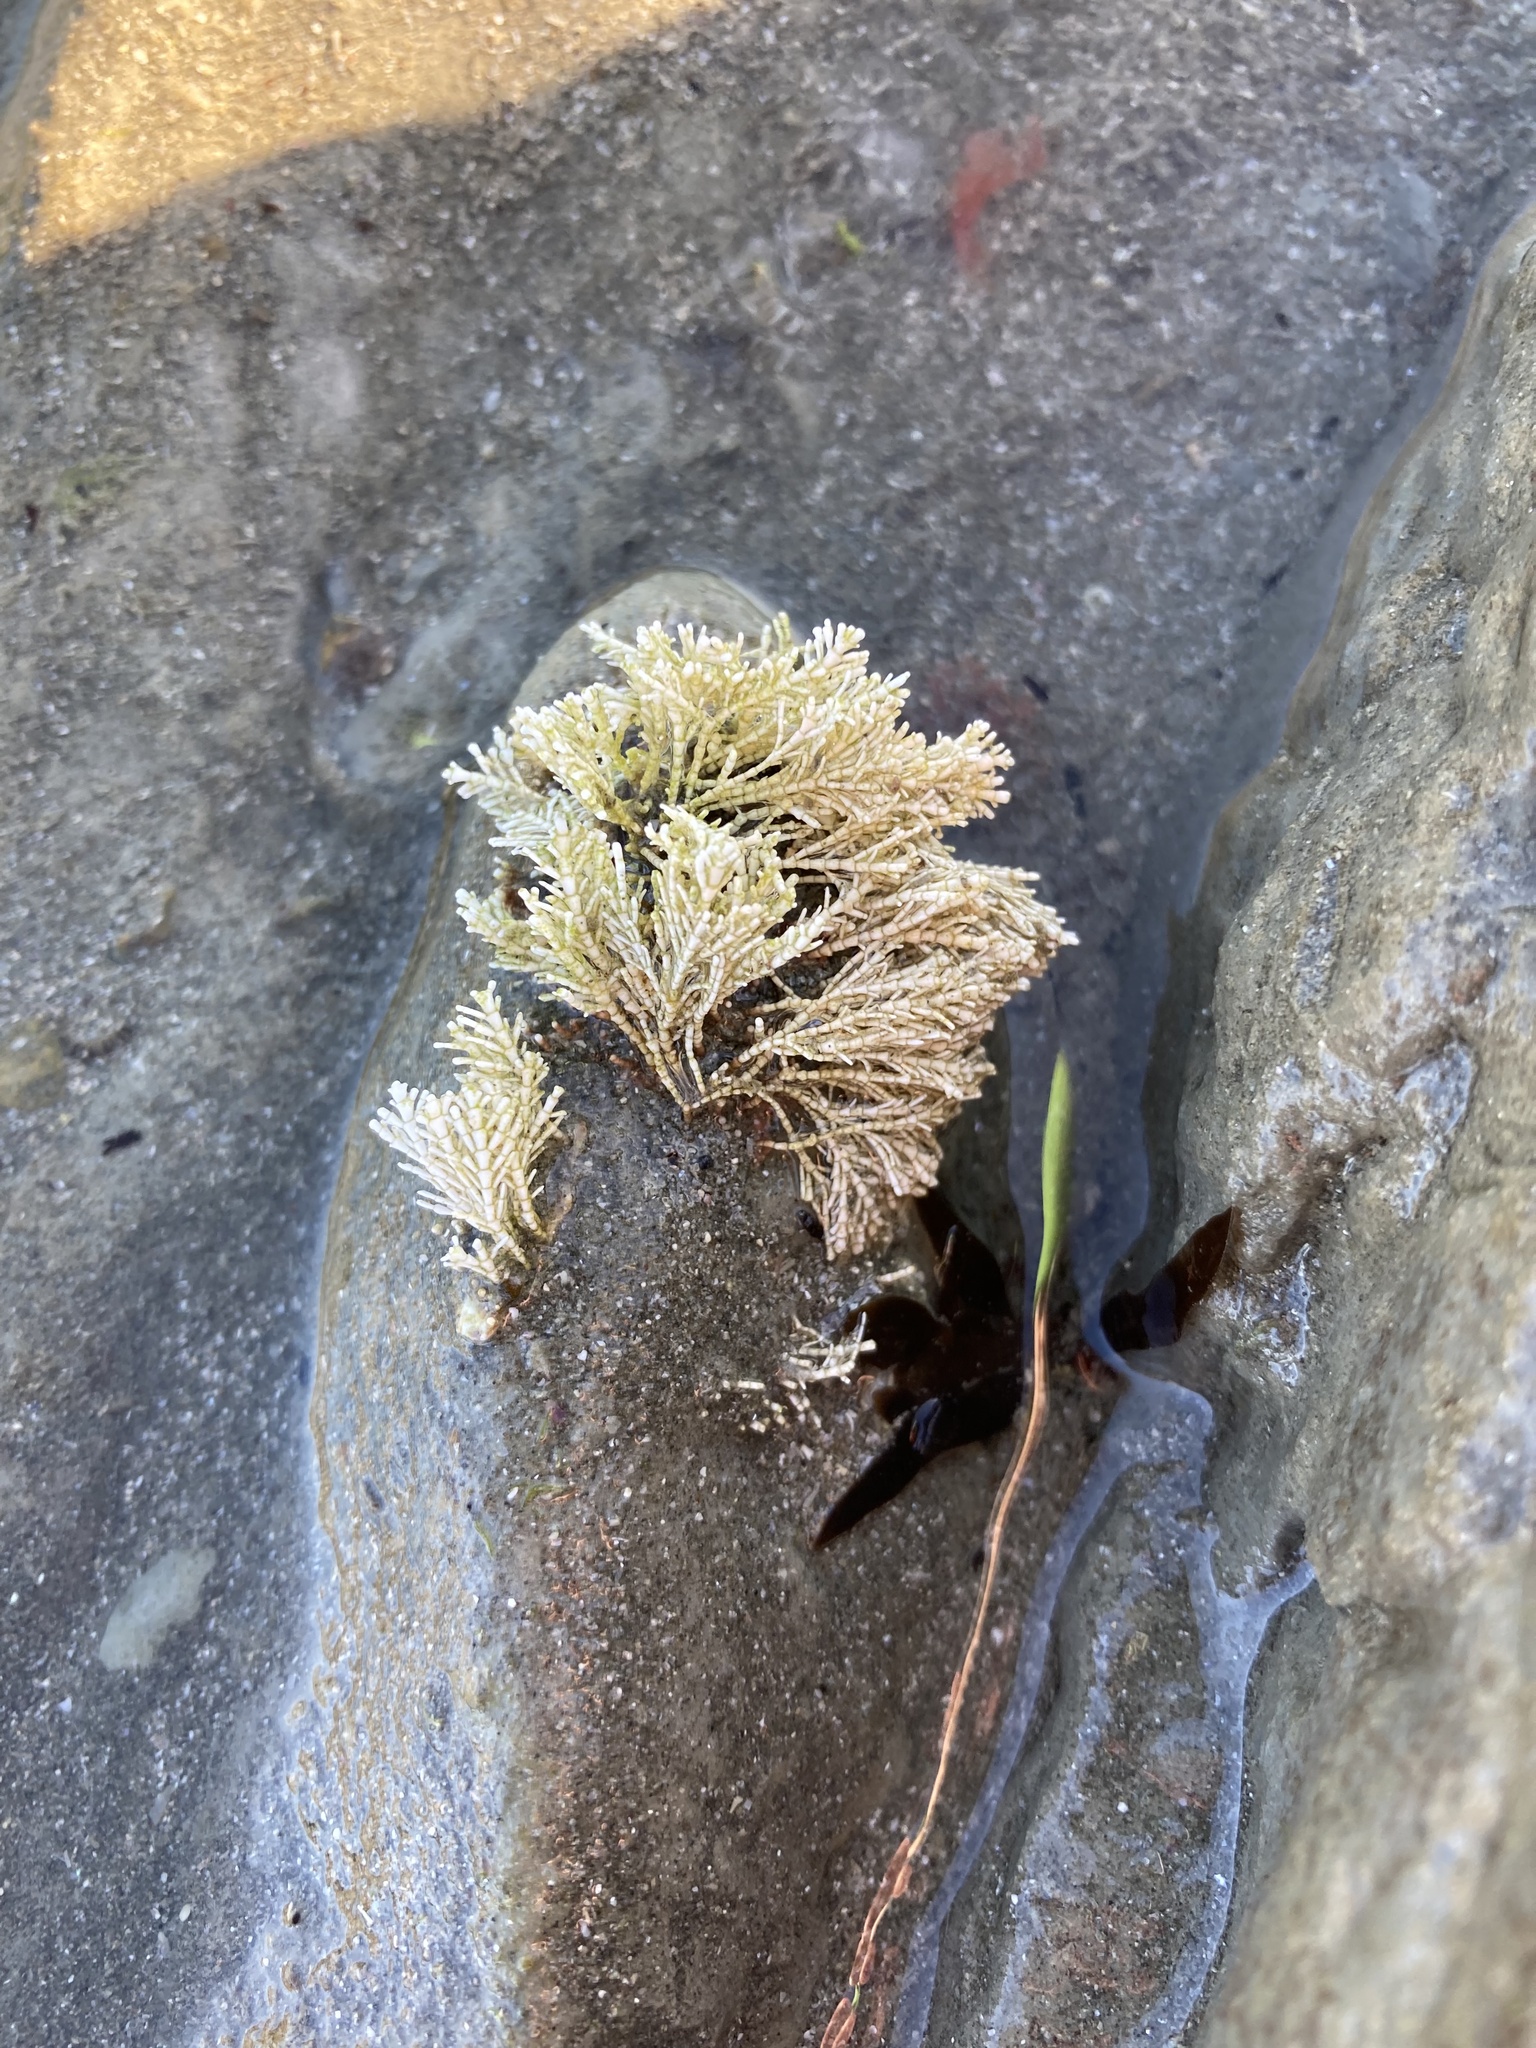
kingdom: Plantae
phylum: Rhodophyta
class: Florideophyceae
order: Corallinales
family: Corallinaceae
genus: Corallina
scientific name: Corallina officinalis
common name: Coral weed
